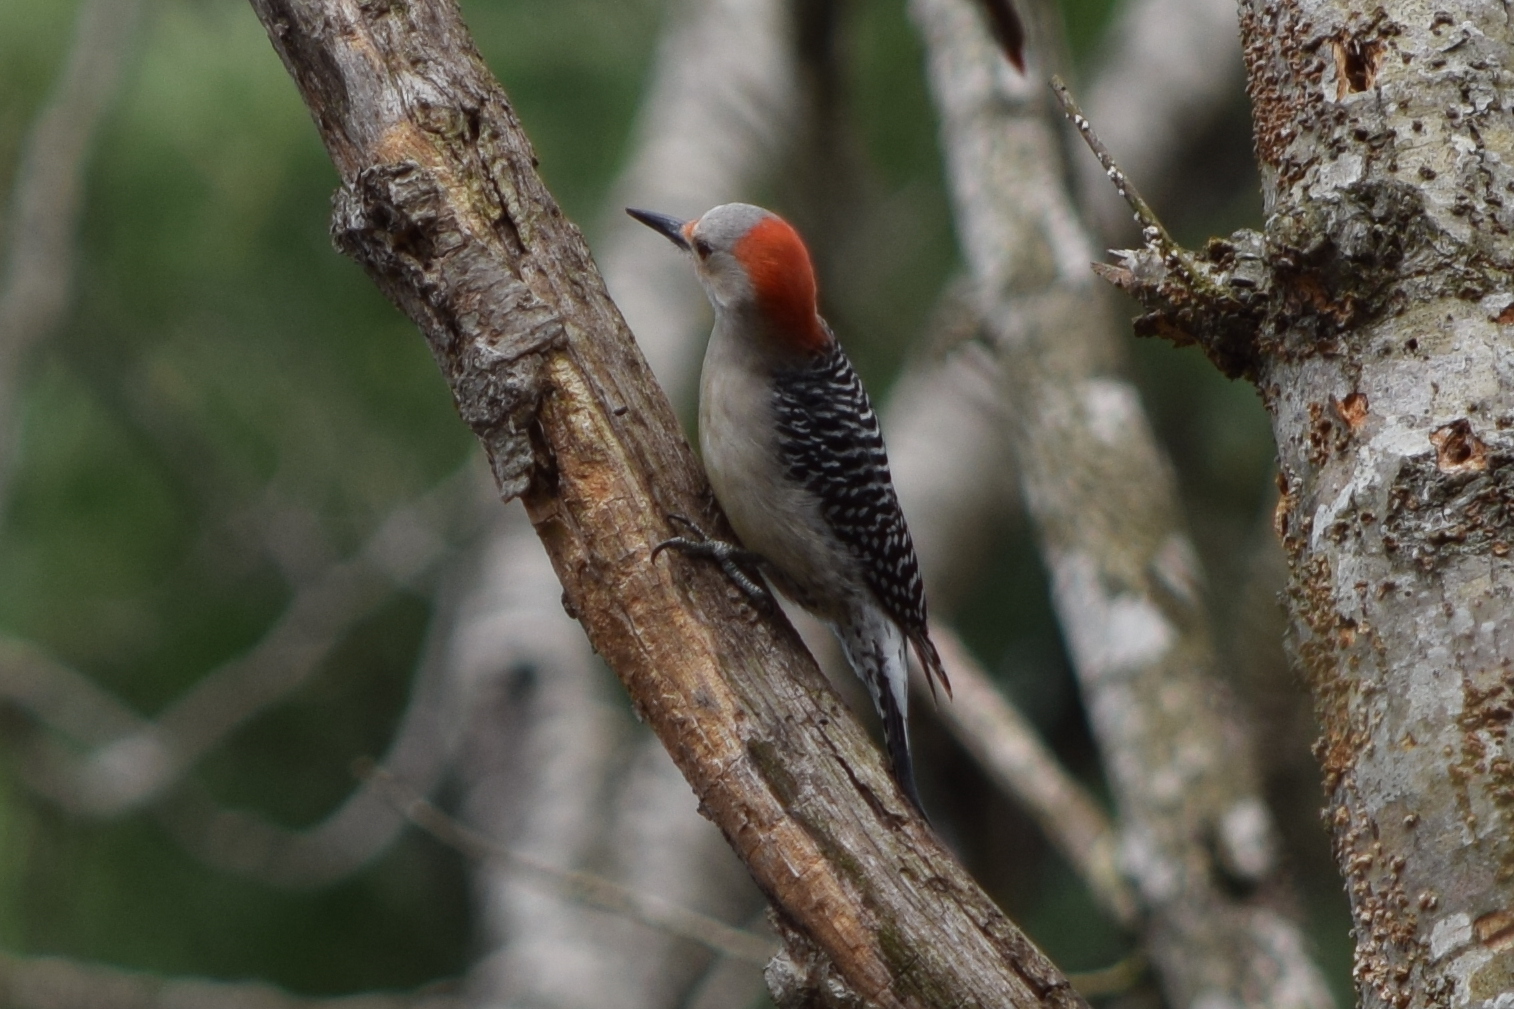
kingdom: Animalia
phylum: Chordata
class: Aves
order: Piciformes
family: Picidae
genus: Melanerpes
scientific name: Melanerpes carolinus
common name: Red-bellied woodpecker
